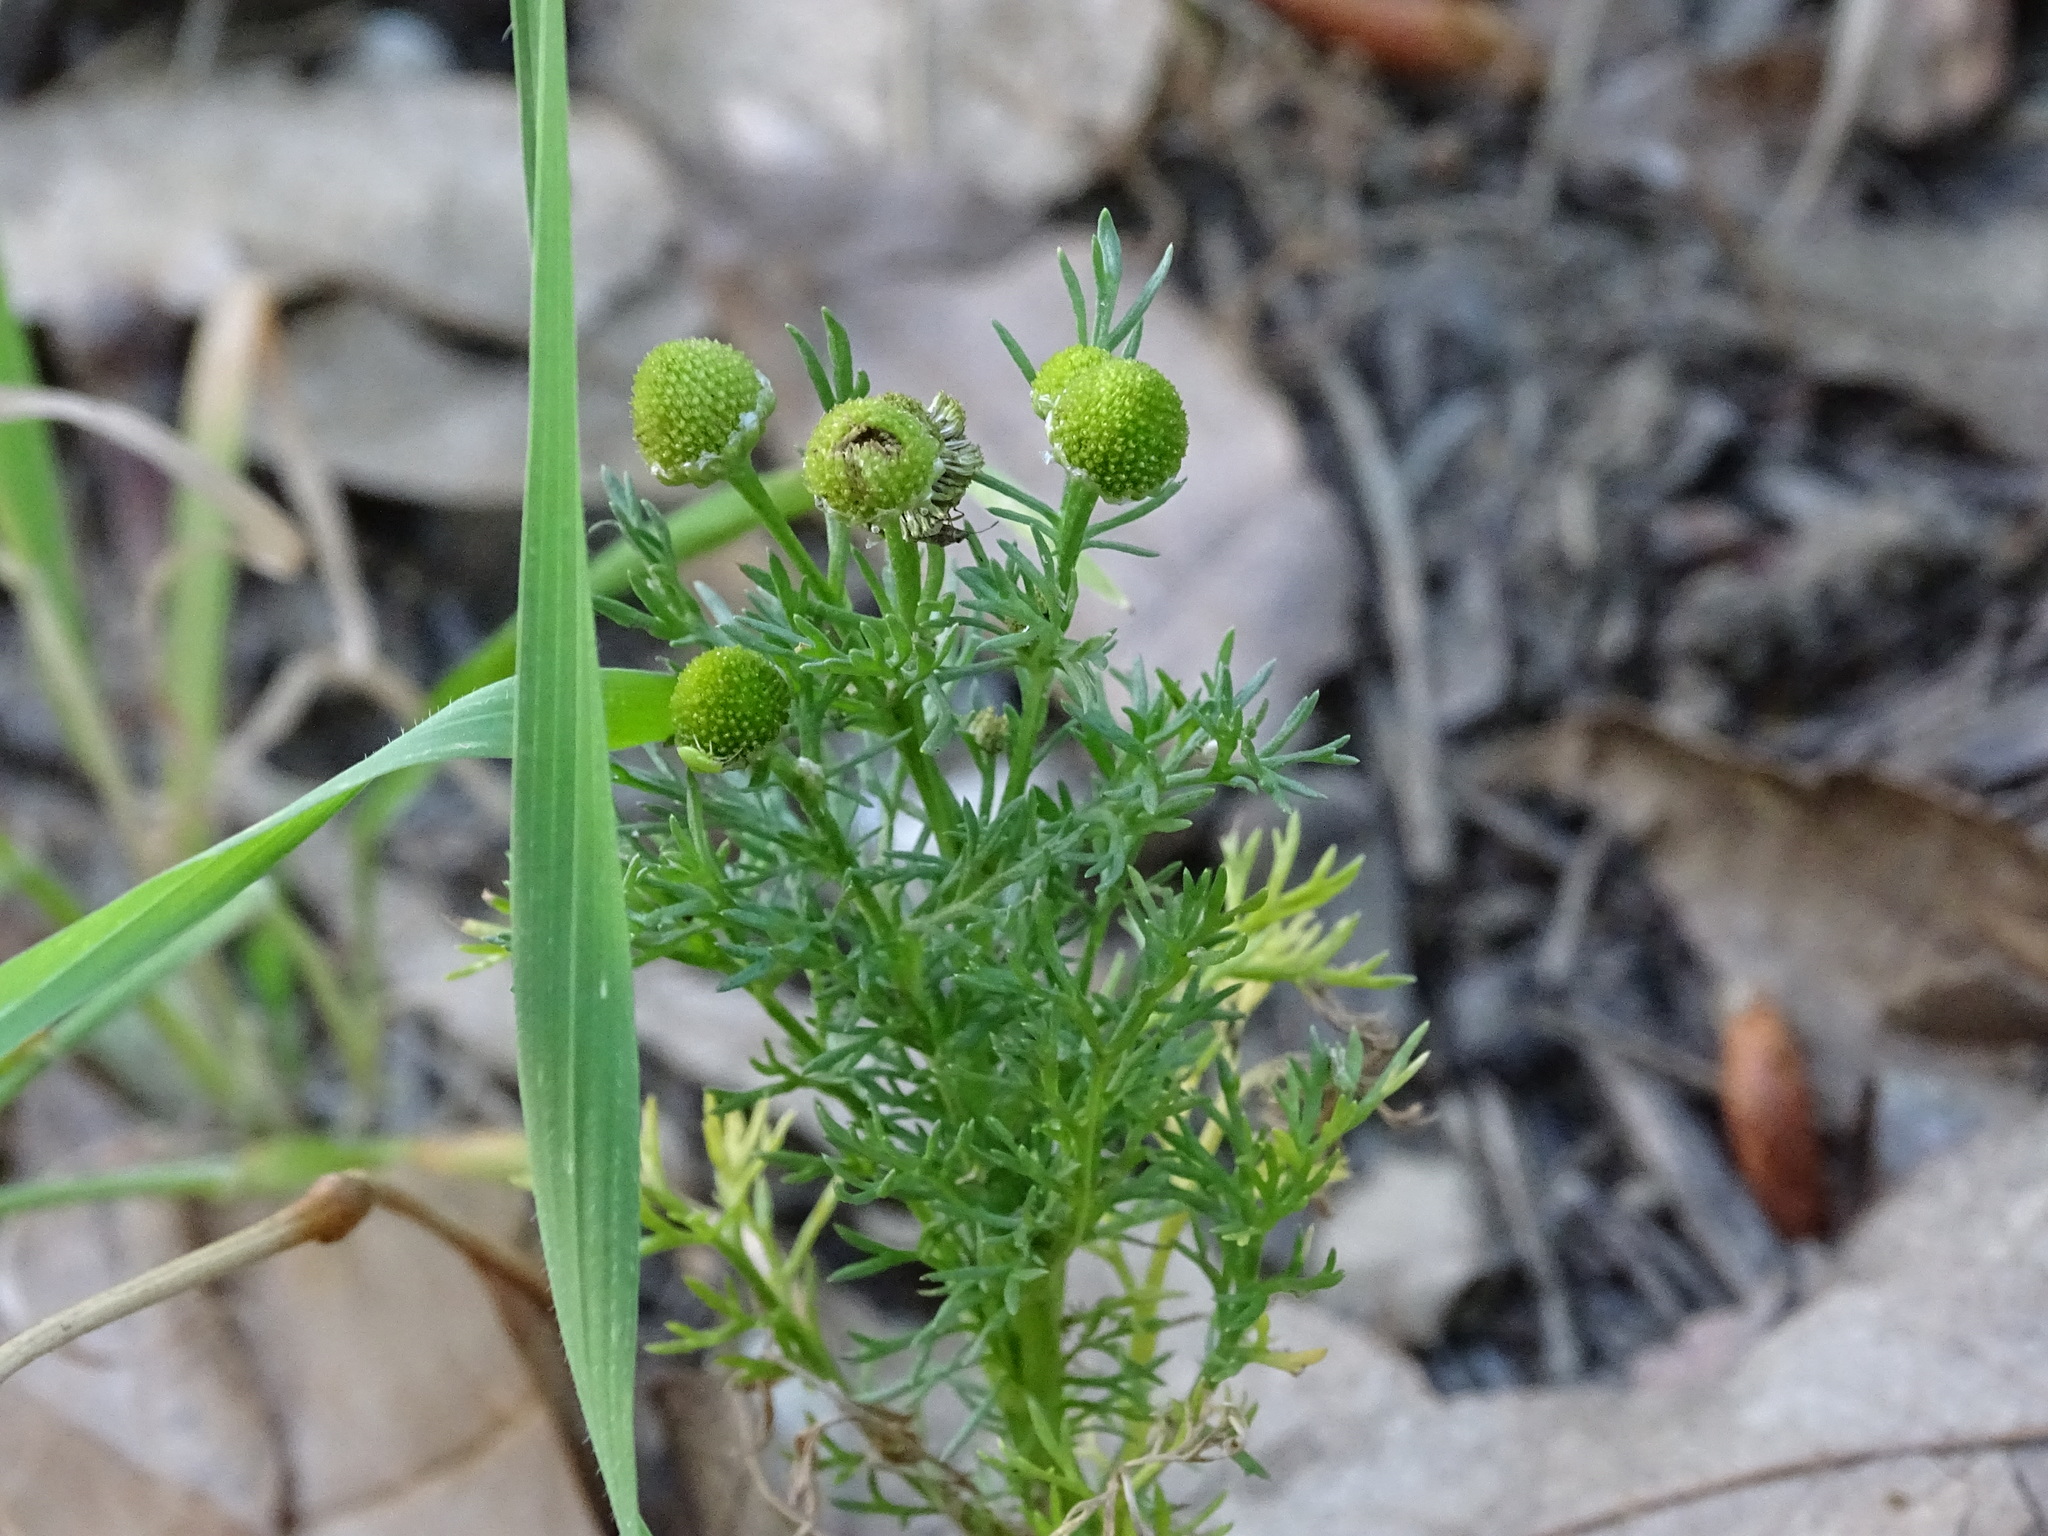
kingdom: Plantae
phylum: Tracheophyta
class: Magnoliopsida
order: Asterales
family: Asteraceae
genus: Matricaria
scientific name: Matricaria discoidea
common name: Disc mayweed
